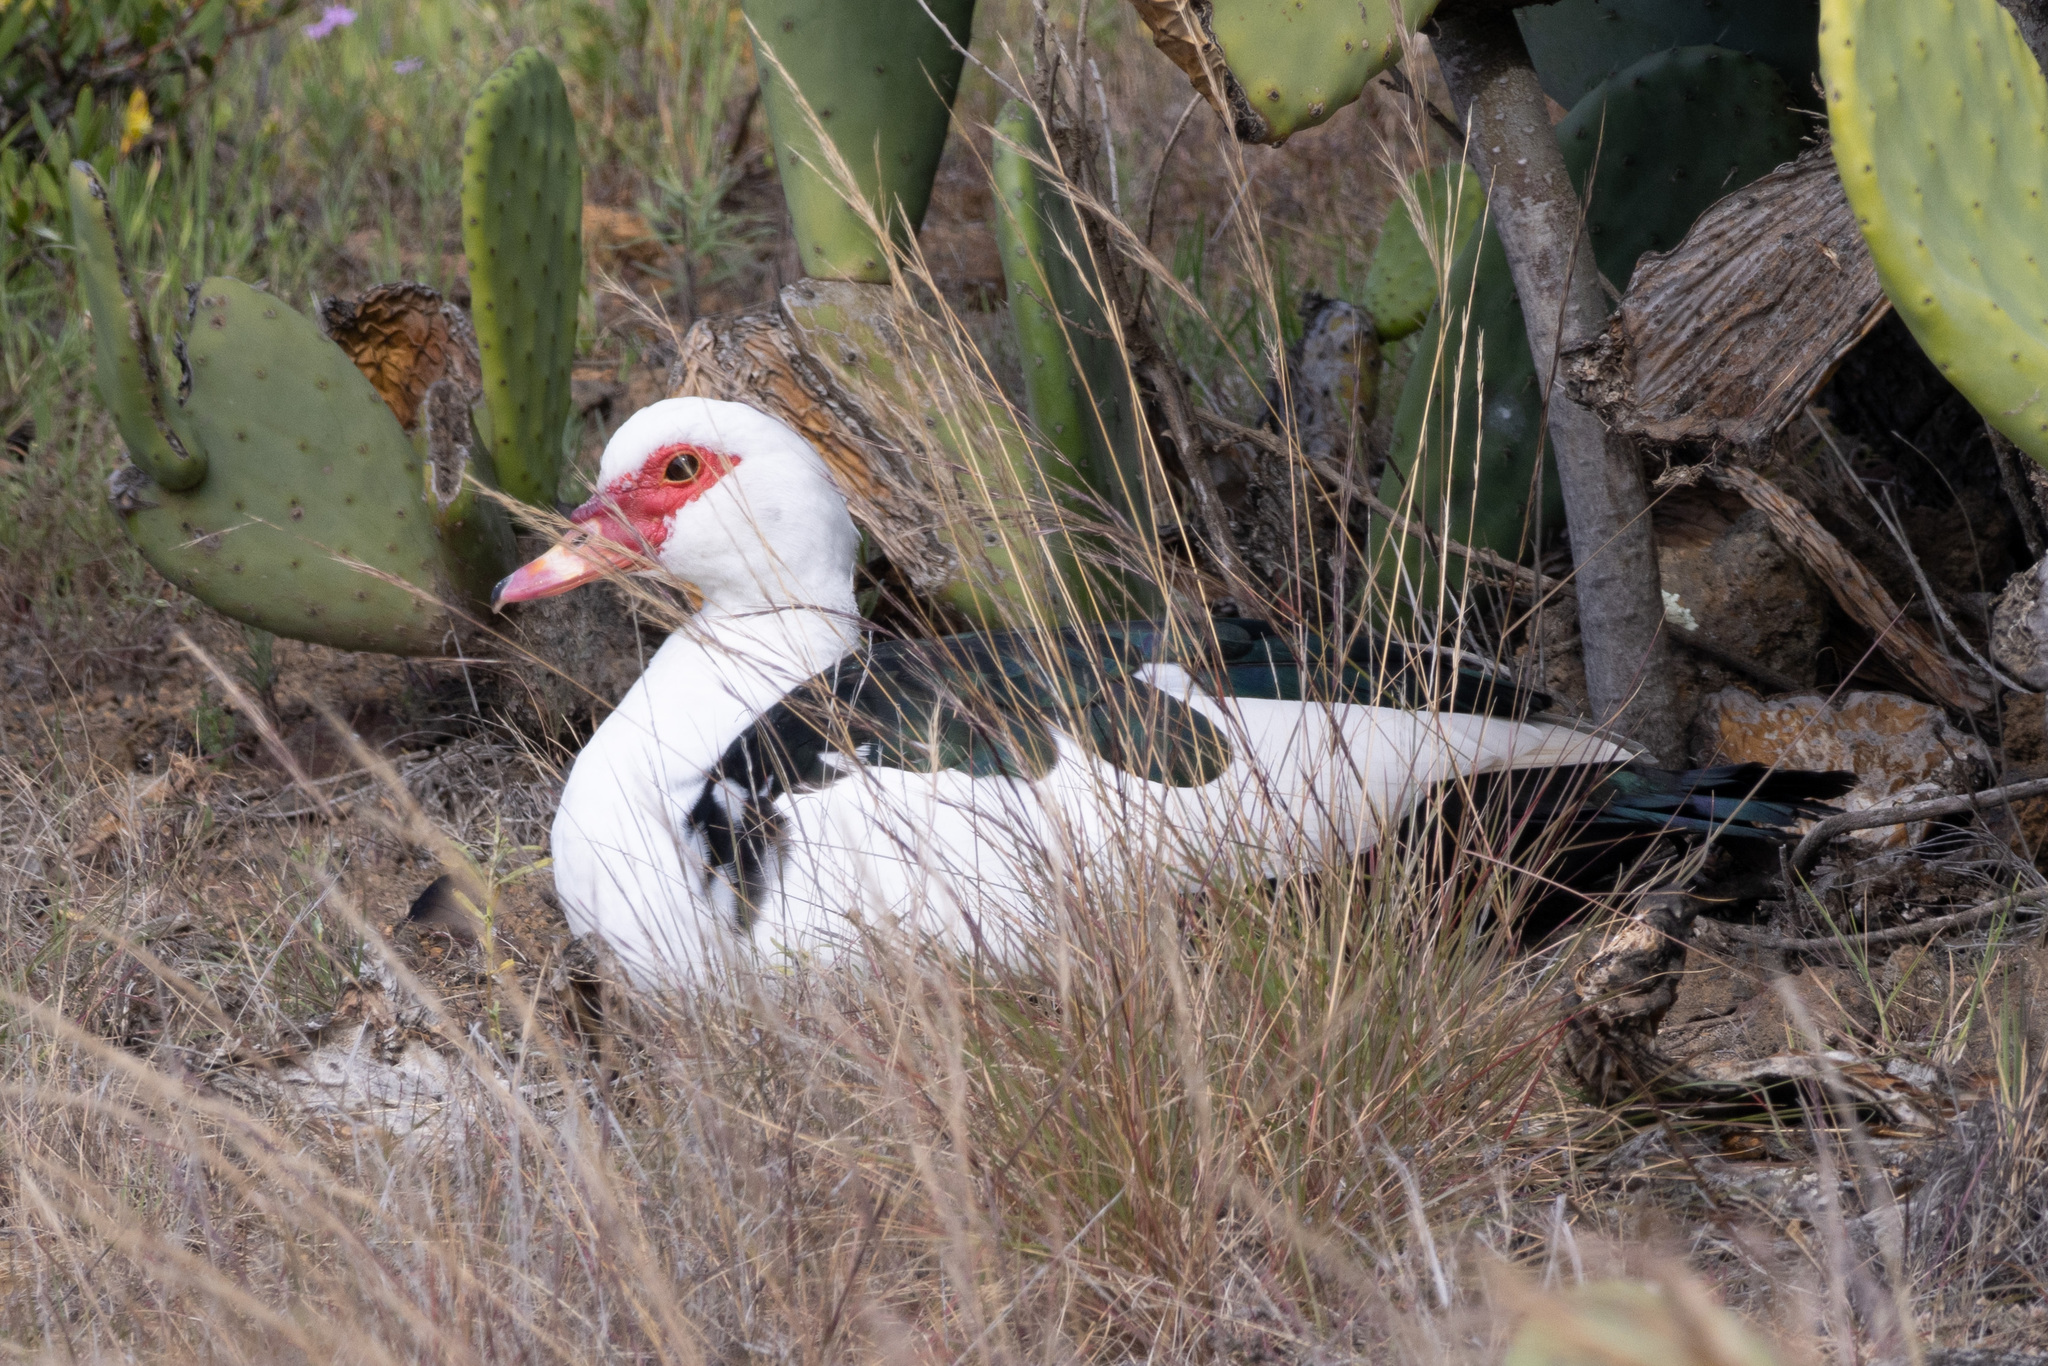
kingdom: Animalia
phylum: Chordata
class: Aves
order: Anseriformes
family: Anatidae
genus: Cairina
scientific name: Cairina moschata
